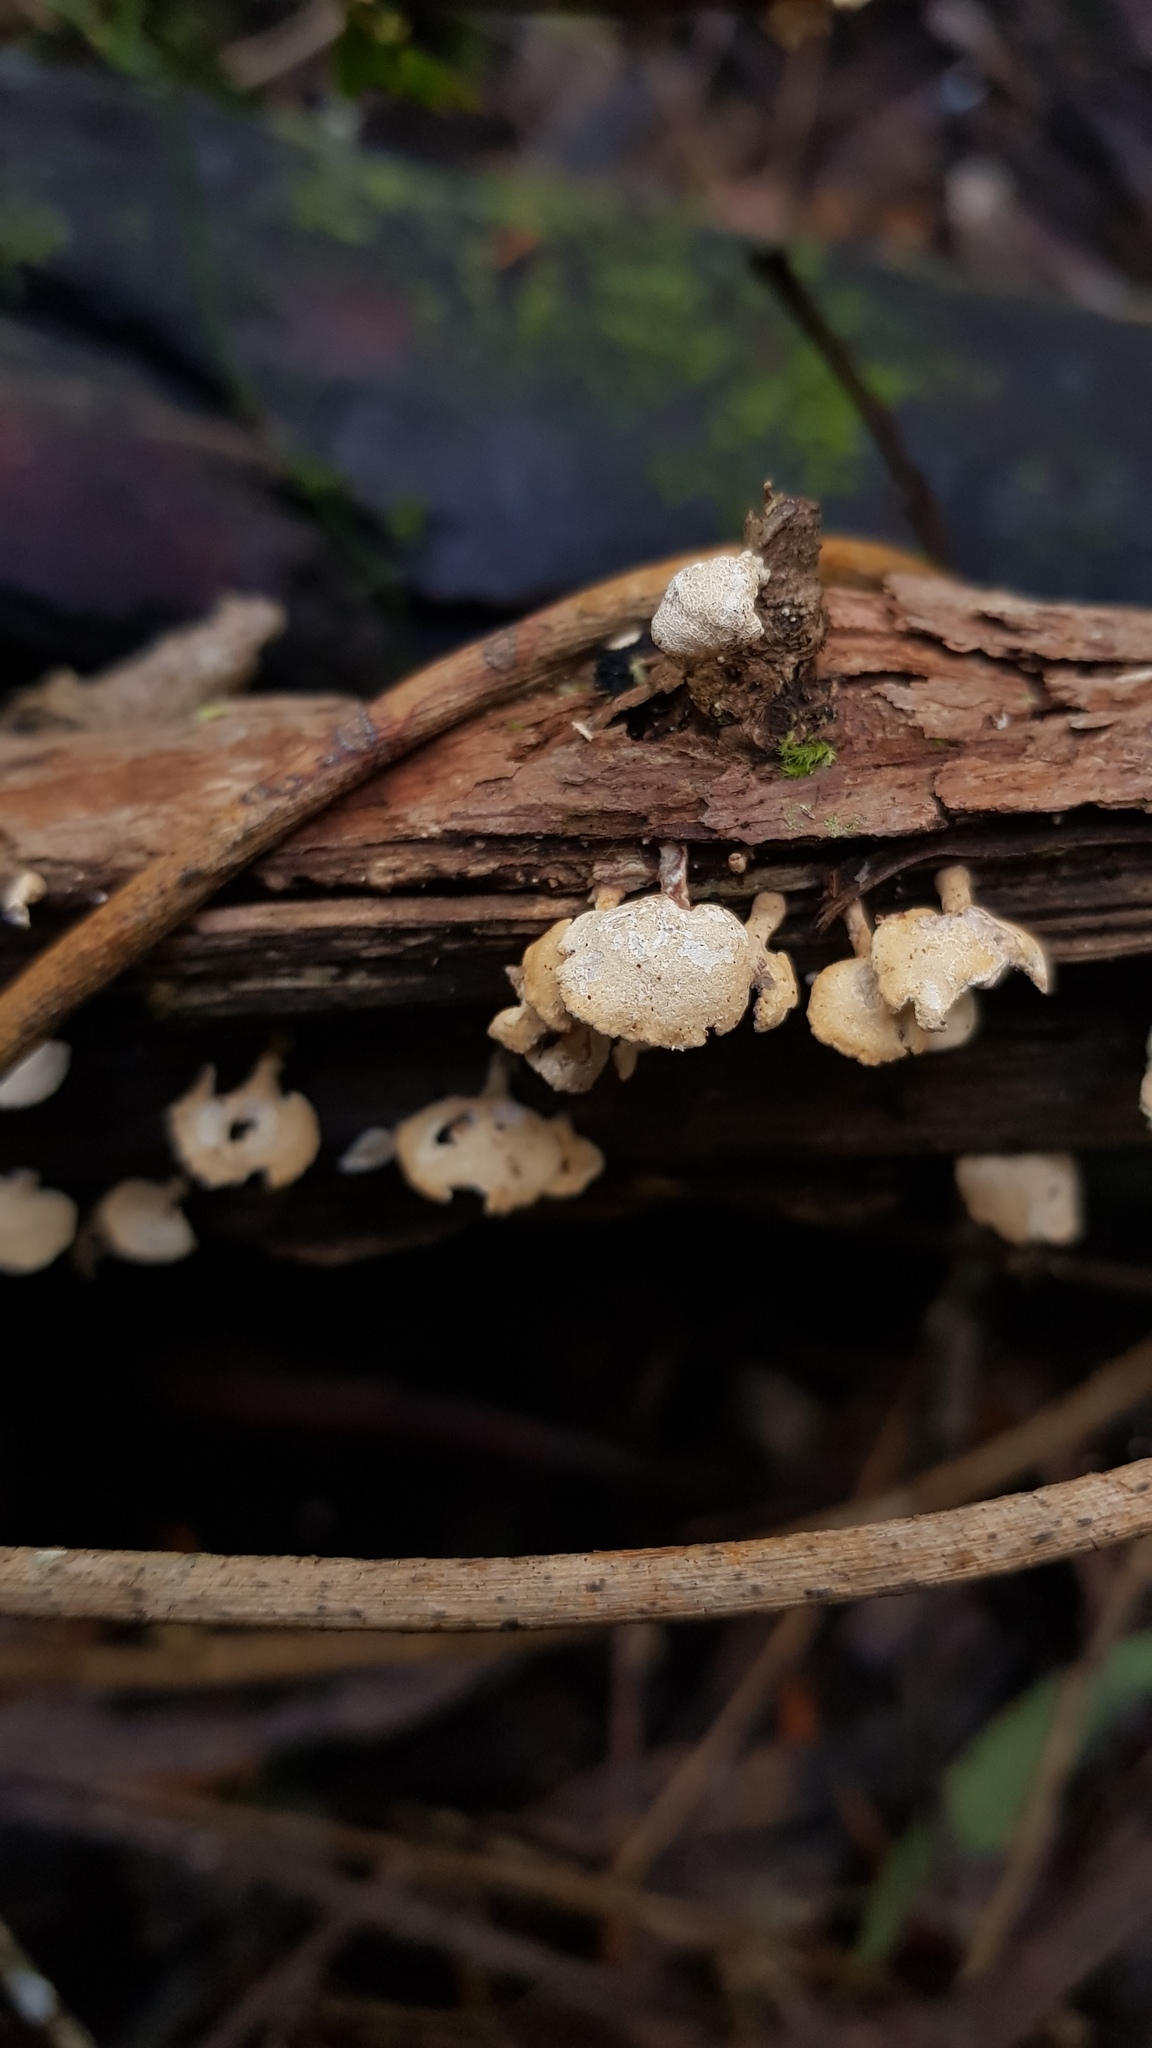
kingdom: Fungi
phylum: Basidiomycota
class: Agaricomycetes
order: Agaricales
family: Mycenaceae
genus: Panellus
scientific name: Panellus luxfilamentus
